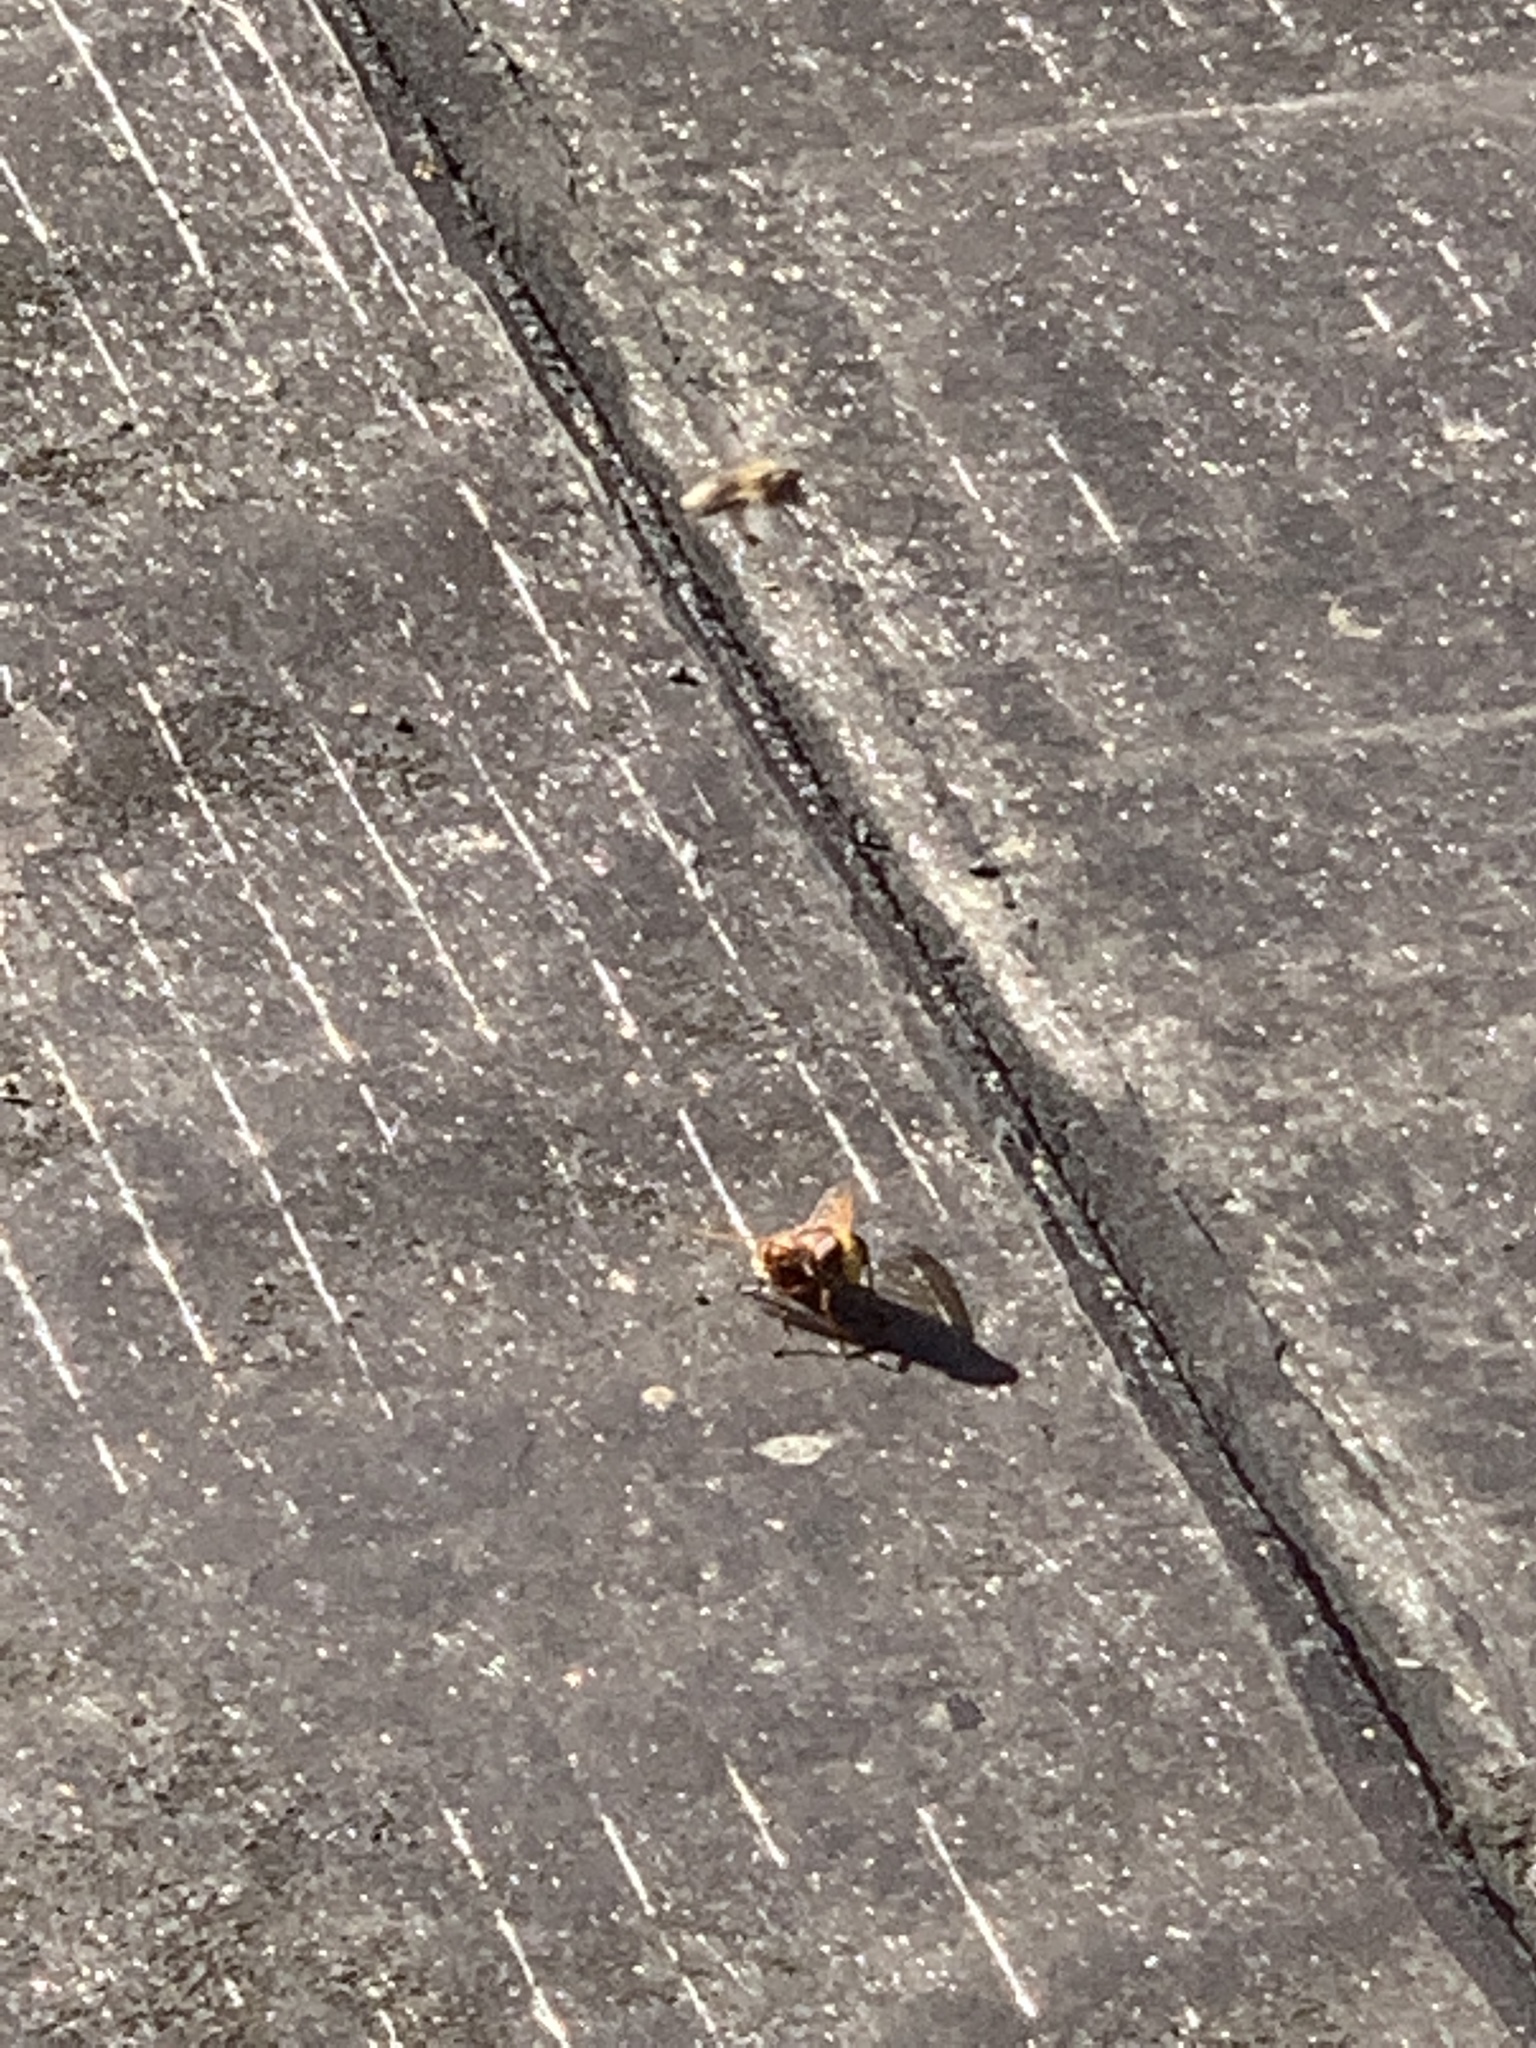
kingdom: Animalia
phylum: Arthropoda
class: Insecta
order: Hymenoptera
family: Vespidae
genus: Vespa
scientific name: Vespa velutina
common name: Asian hornet
